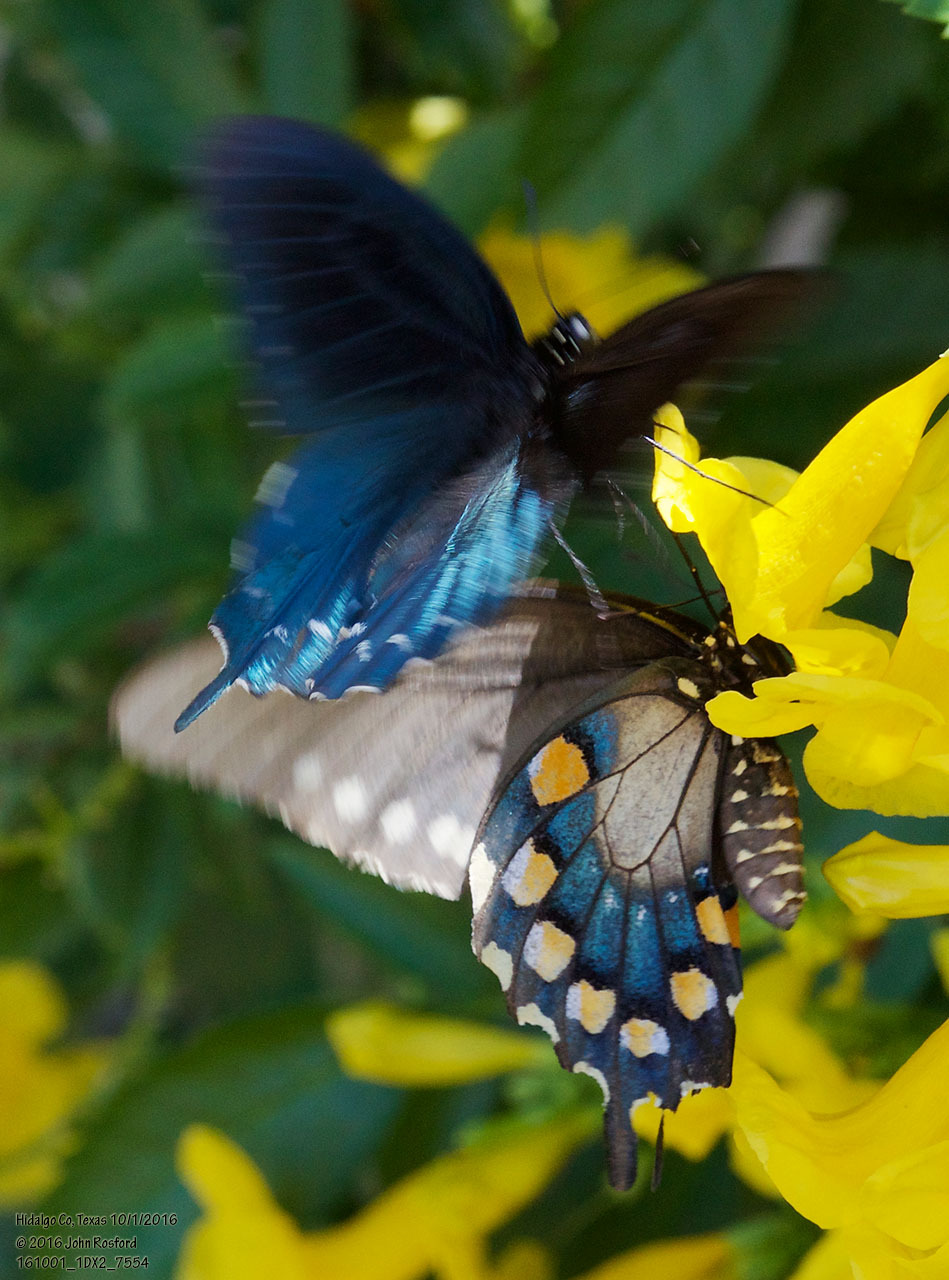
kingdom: Animalia
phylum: Arthropoda
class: Insecta
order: Lepidoptera
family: Papilionidae
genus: Battus
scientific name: Battus philenor
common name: Pipevine swallowtail
